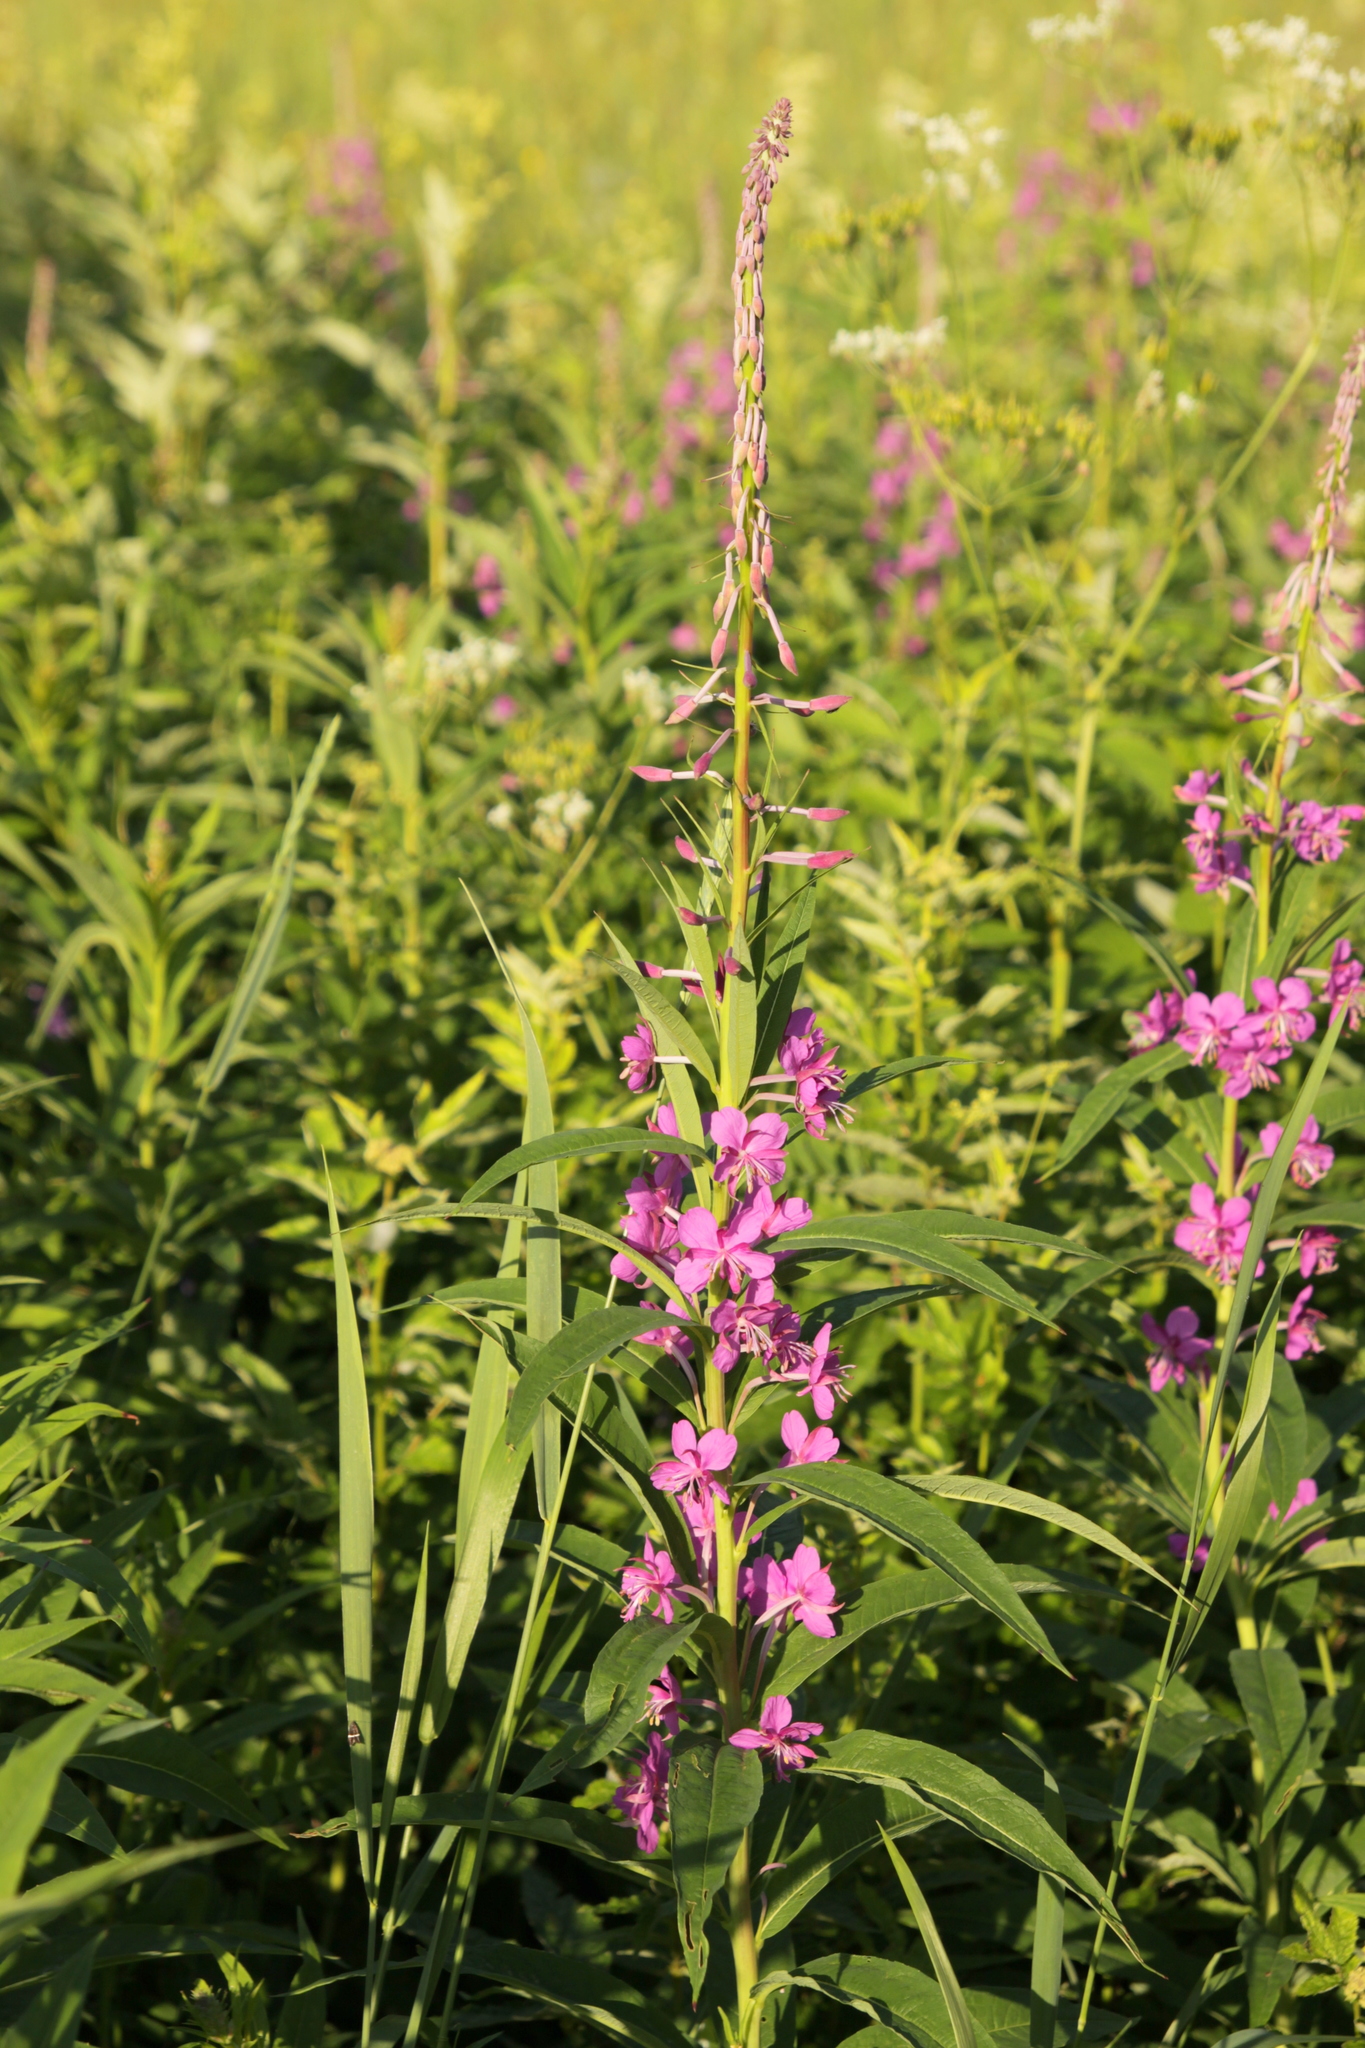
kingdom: Plantae
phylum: Tracheophyta
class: Magnoliopsida
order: Myrtales
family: Onagraceae
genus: Chamaenerion
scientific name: Chamaenerion angustifolium
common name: Fireweed
